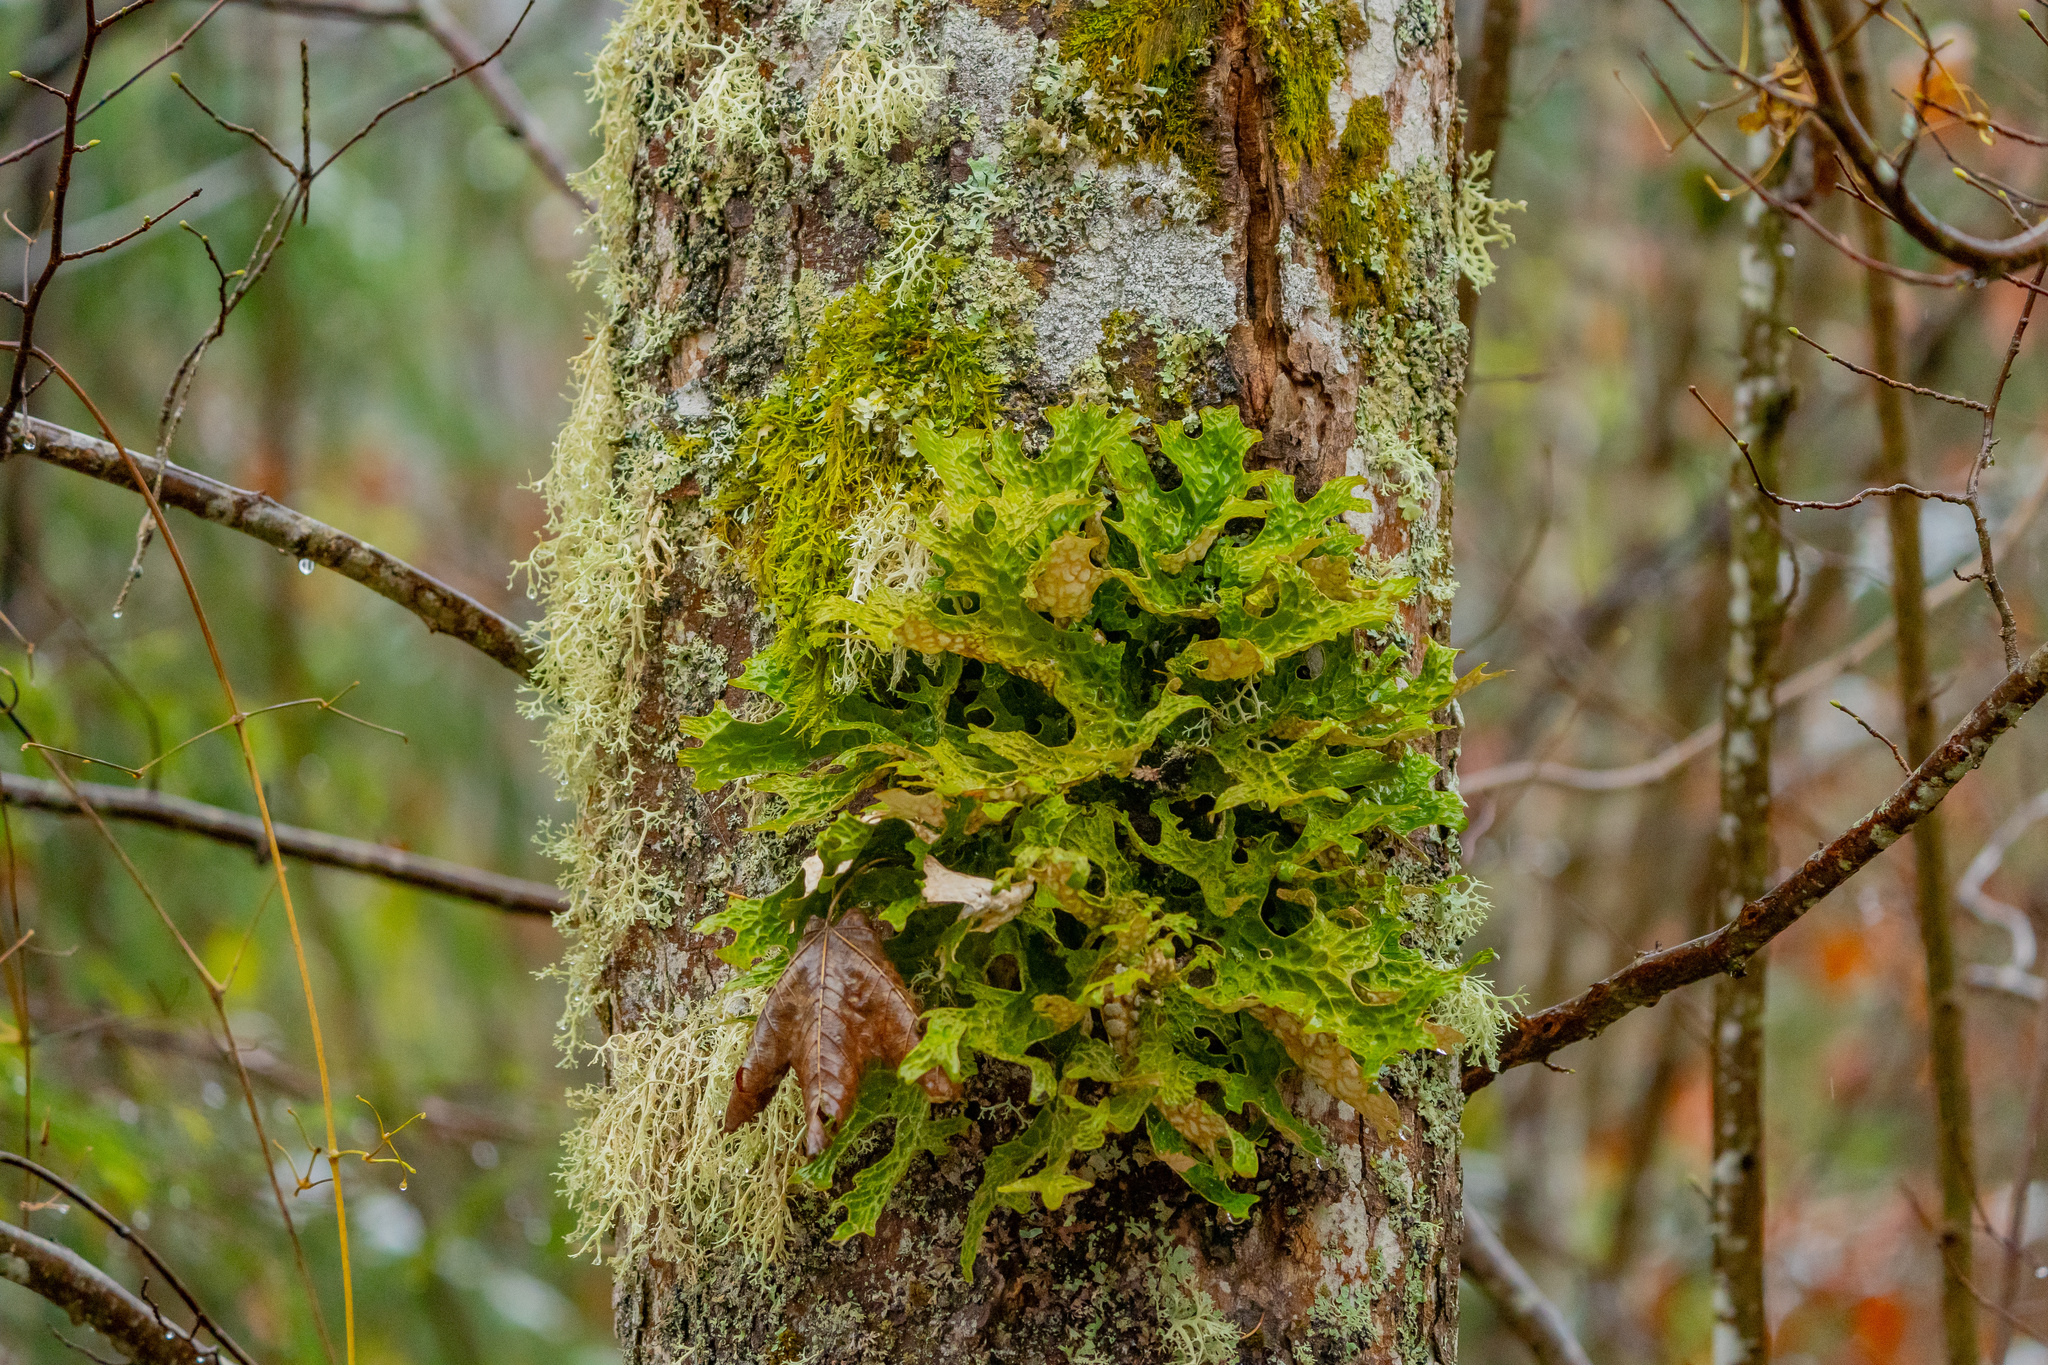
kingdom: Fungi
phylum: Ascomycota
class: Lecanoromycetes
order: Peltigerales
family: Lobariaceae
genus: Lobaria
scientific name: Lobaria pulmonaria
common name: Lungwort
